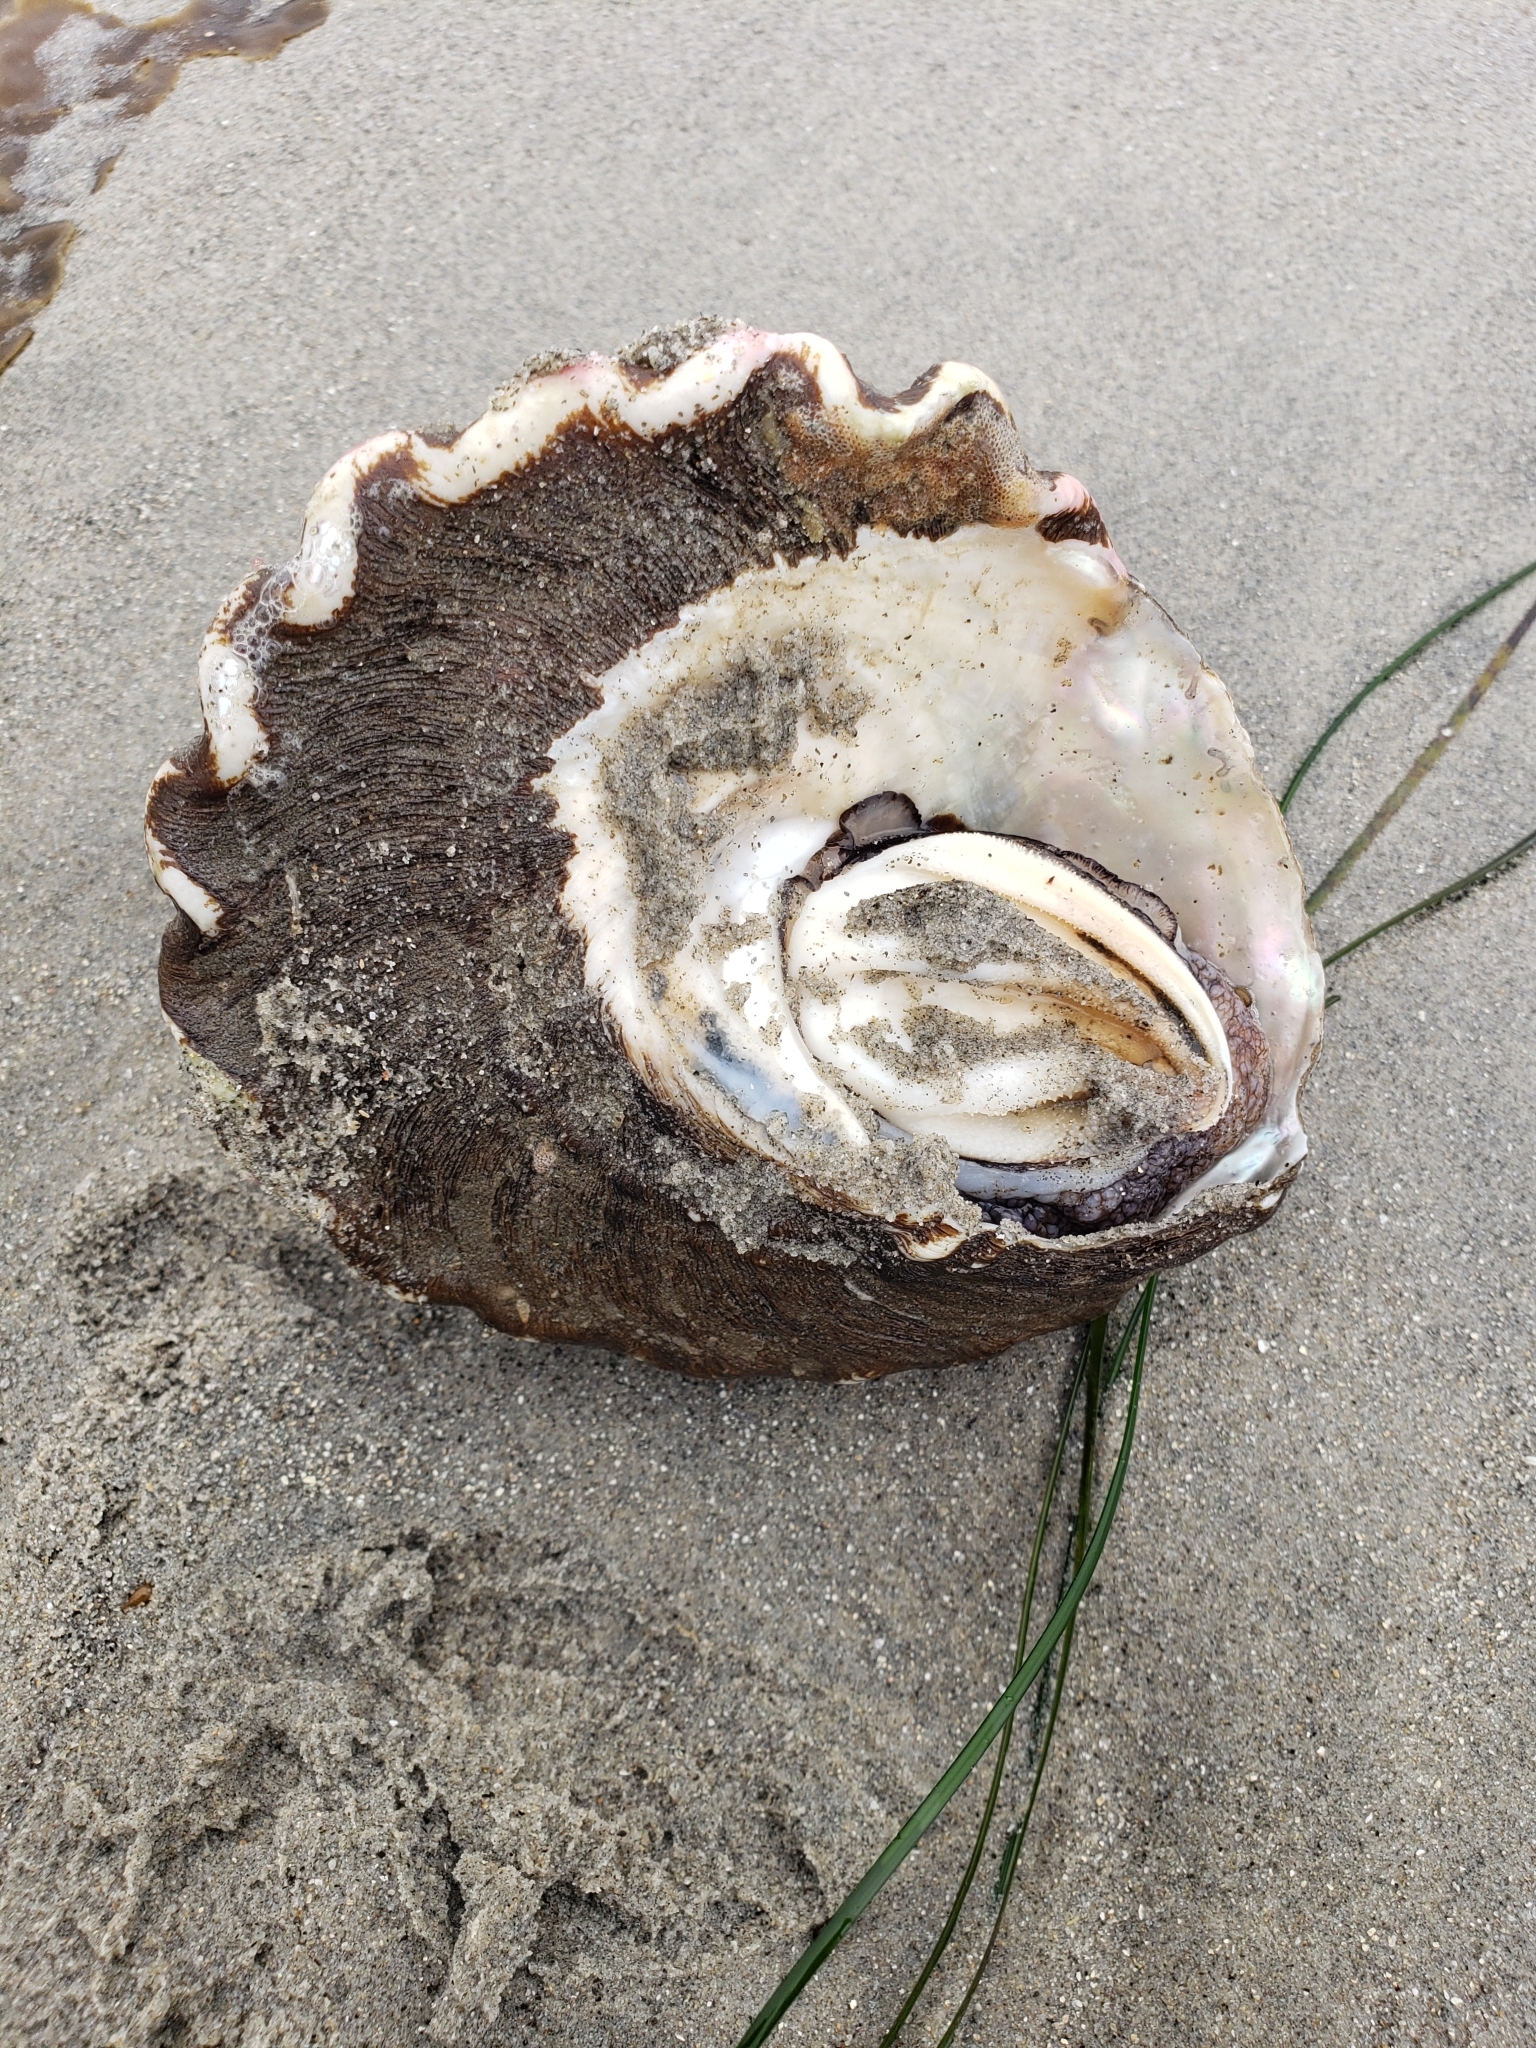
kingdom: Animalia
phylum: Mollusca
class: Gastropoda
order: Trochida
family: Turbinidae
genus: Megastraea
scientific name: Megastraea undosa
